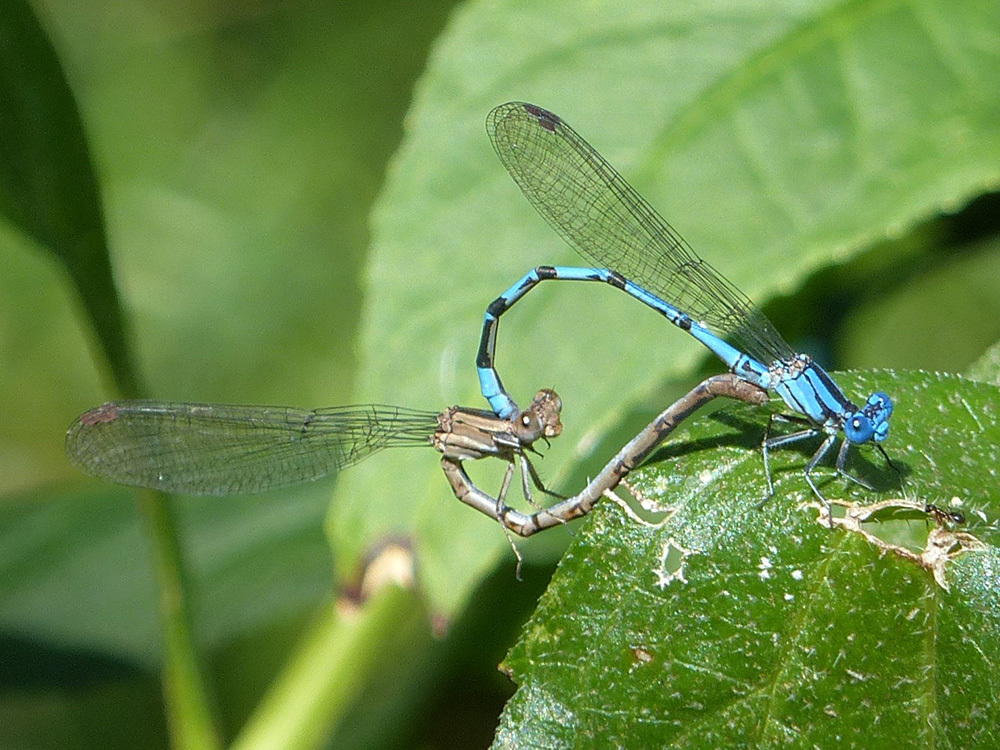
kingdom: Animalia
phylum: Arthropoda
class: Insecta
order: Odonata
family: Coenagrionidae
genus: Argia
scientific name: Argia funebris
